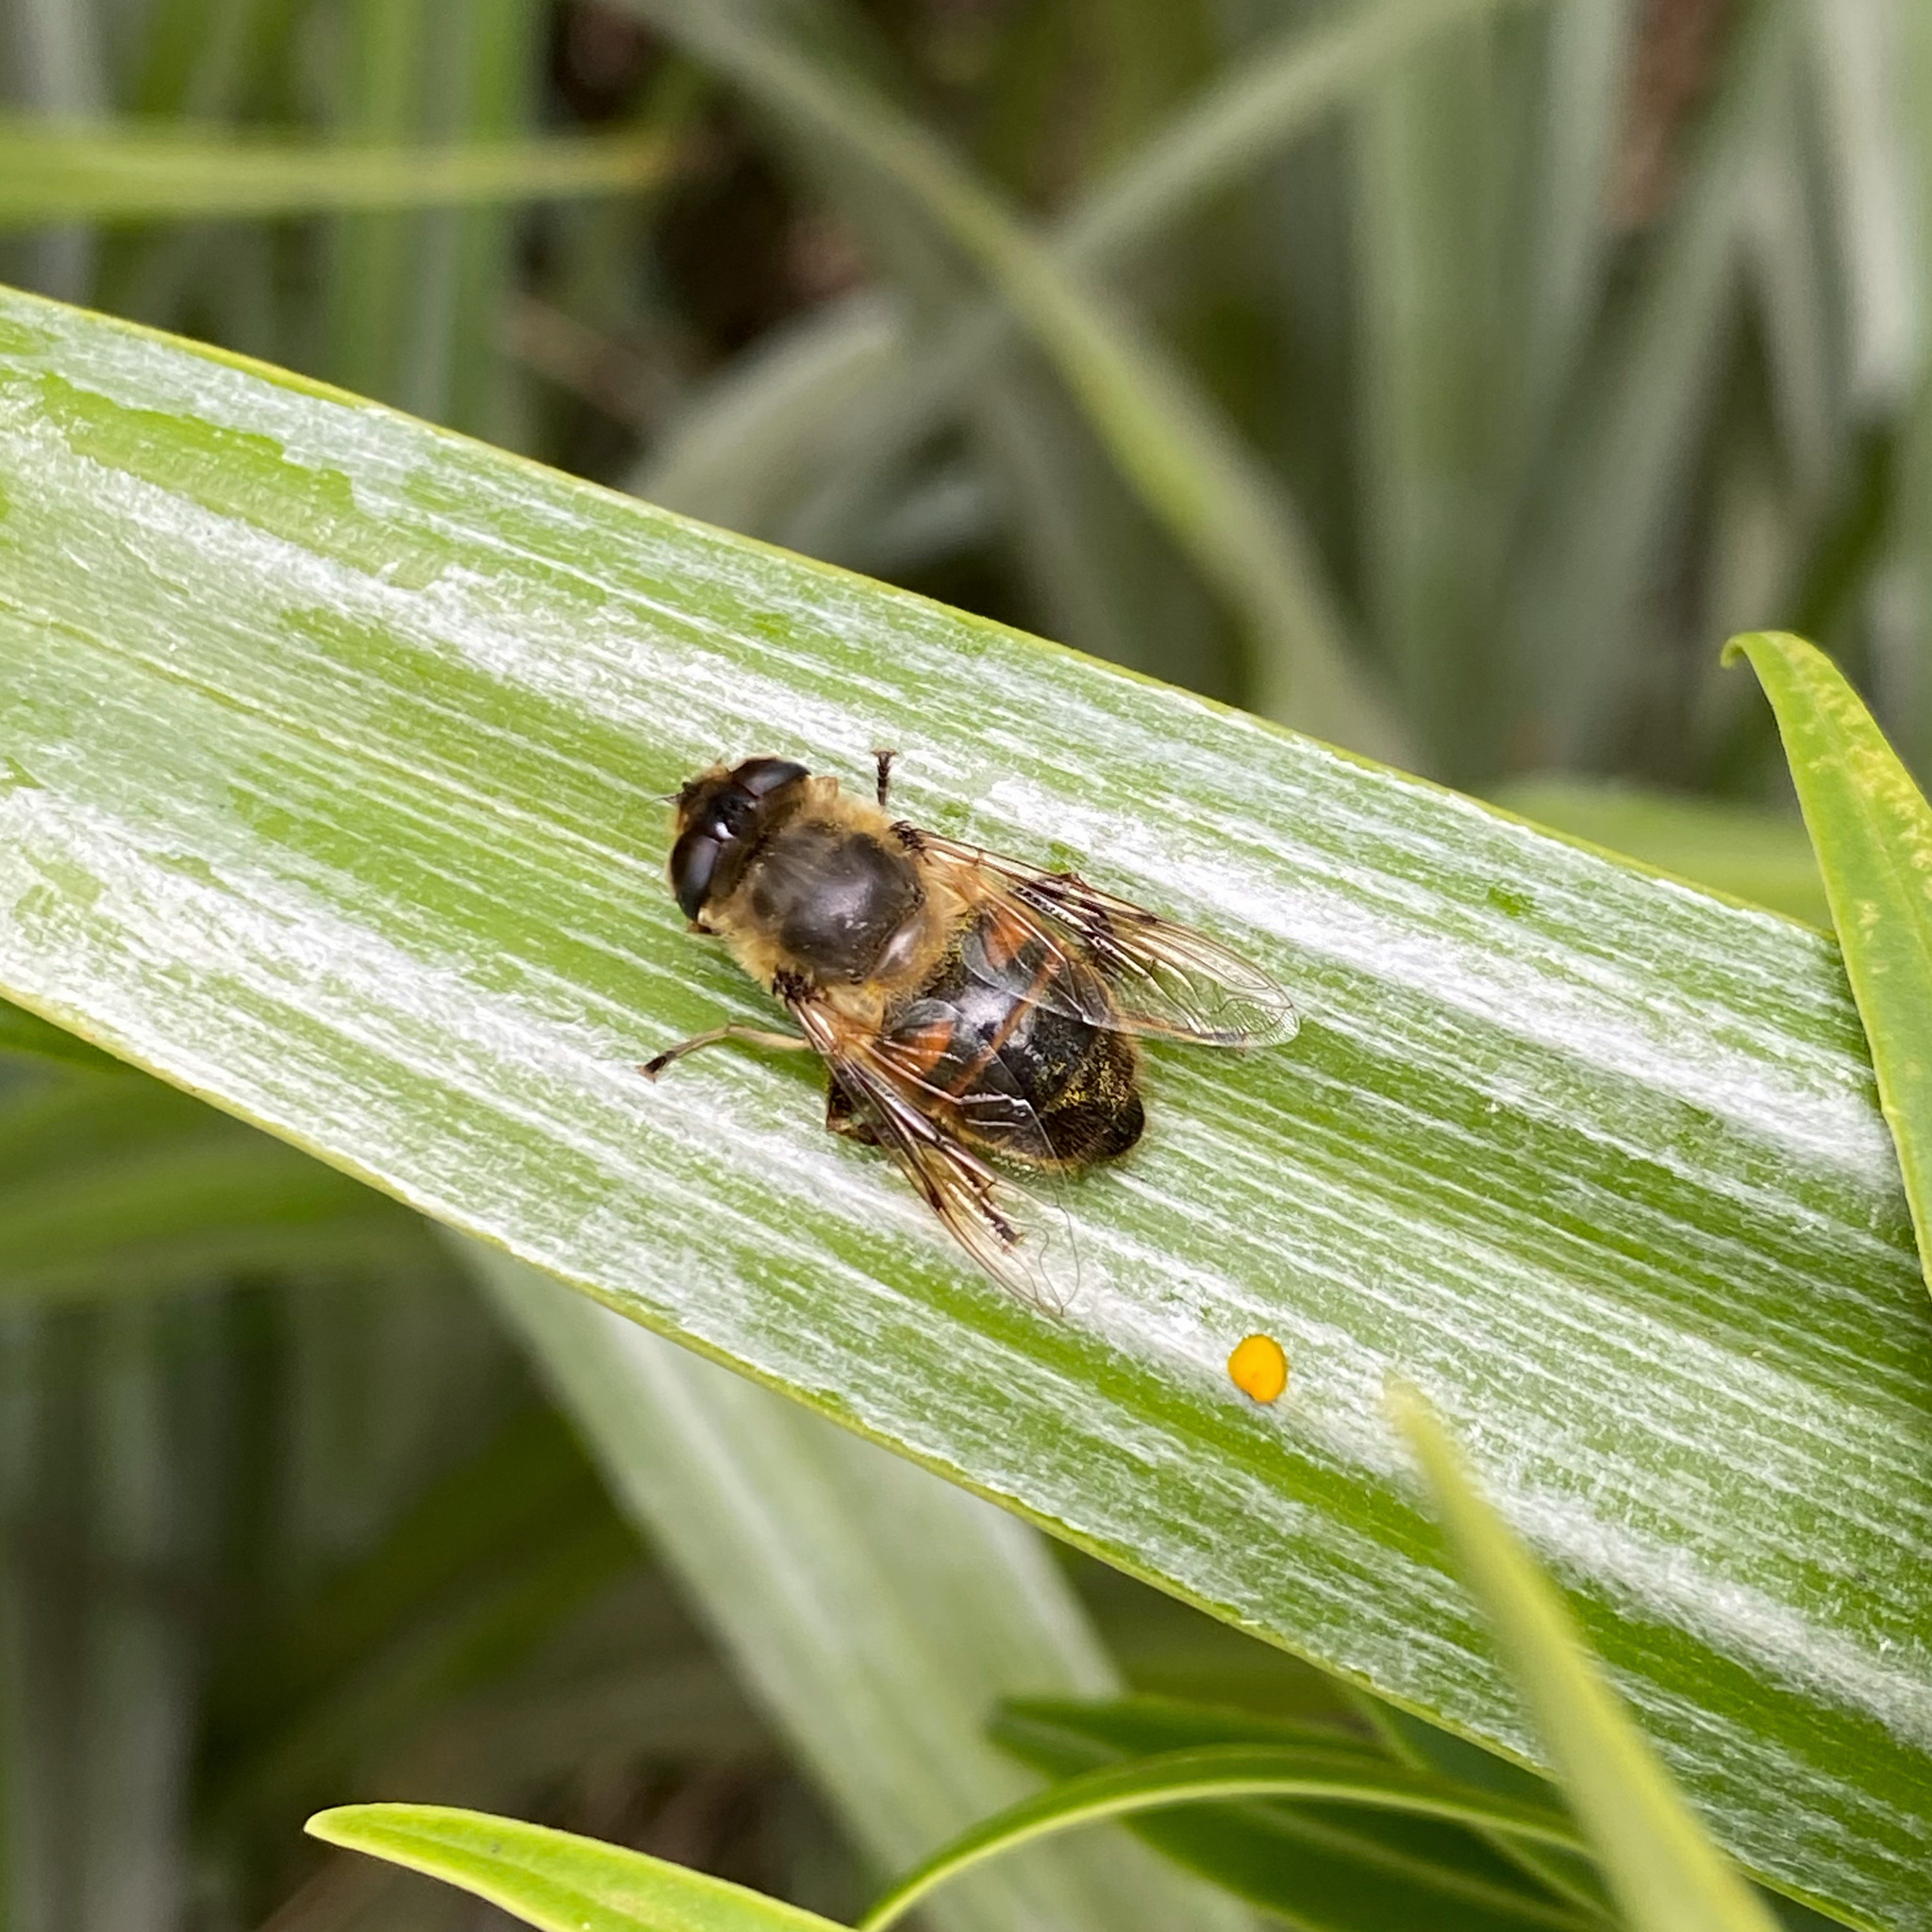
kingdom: Animalia
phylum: Arthropoda
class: Insecta
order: Diptera
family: Syrphidae
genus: Eristalis
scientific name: Eristalis tenax
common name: Drone fly
